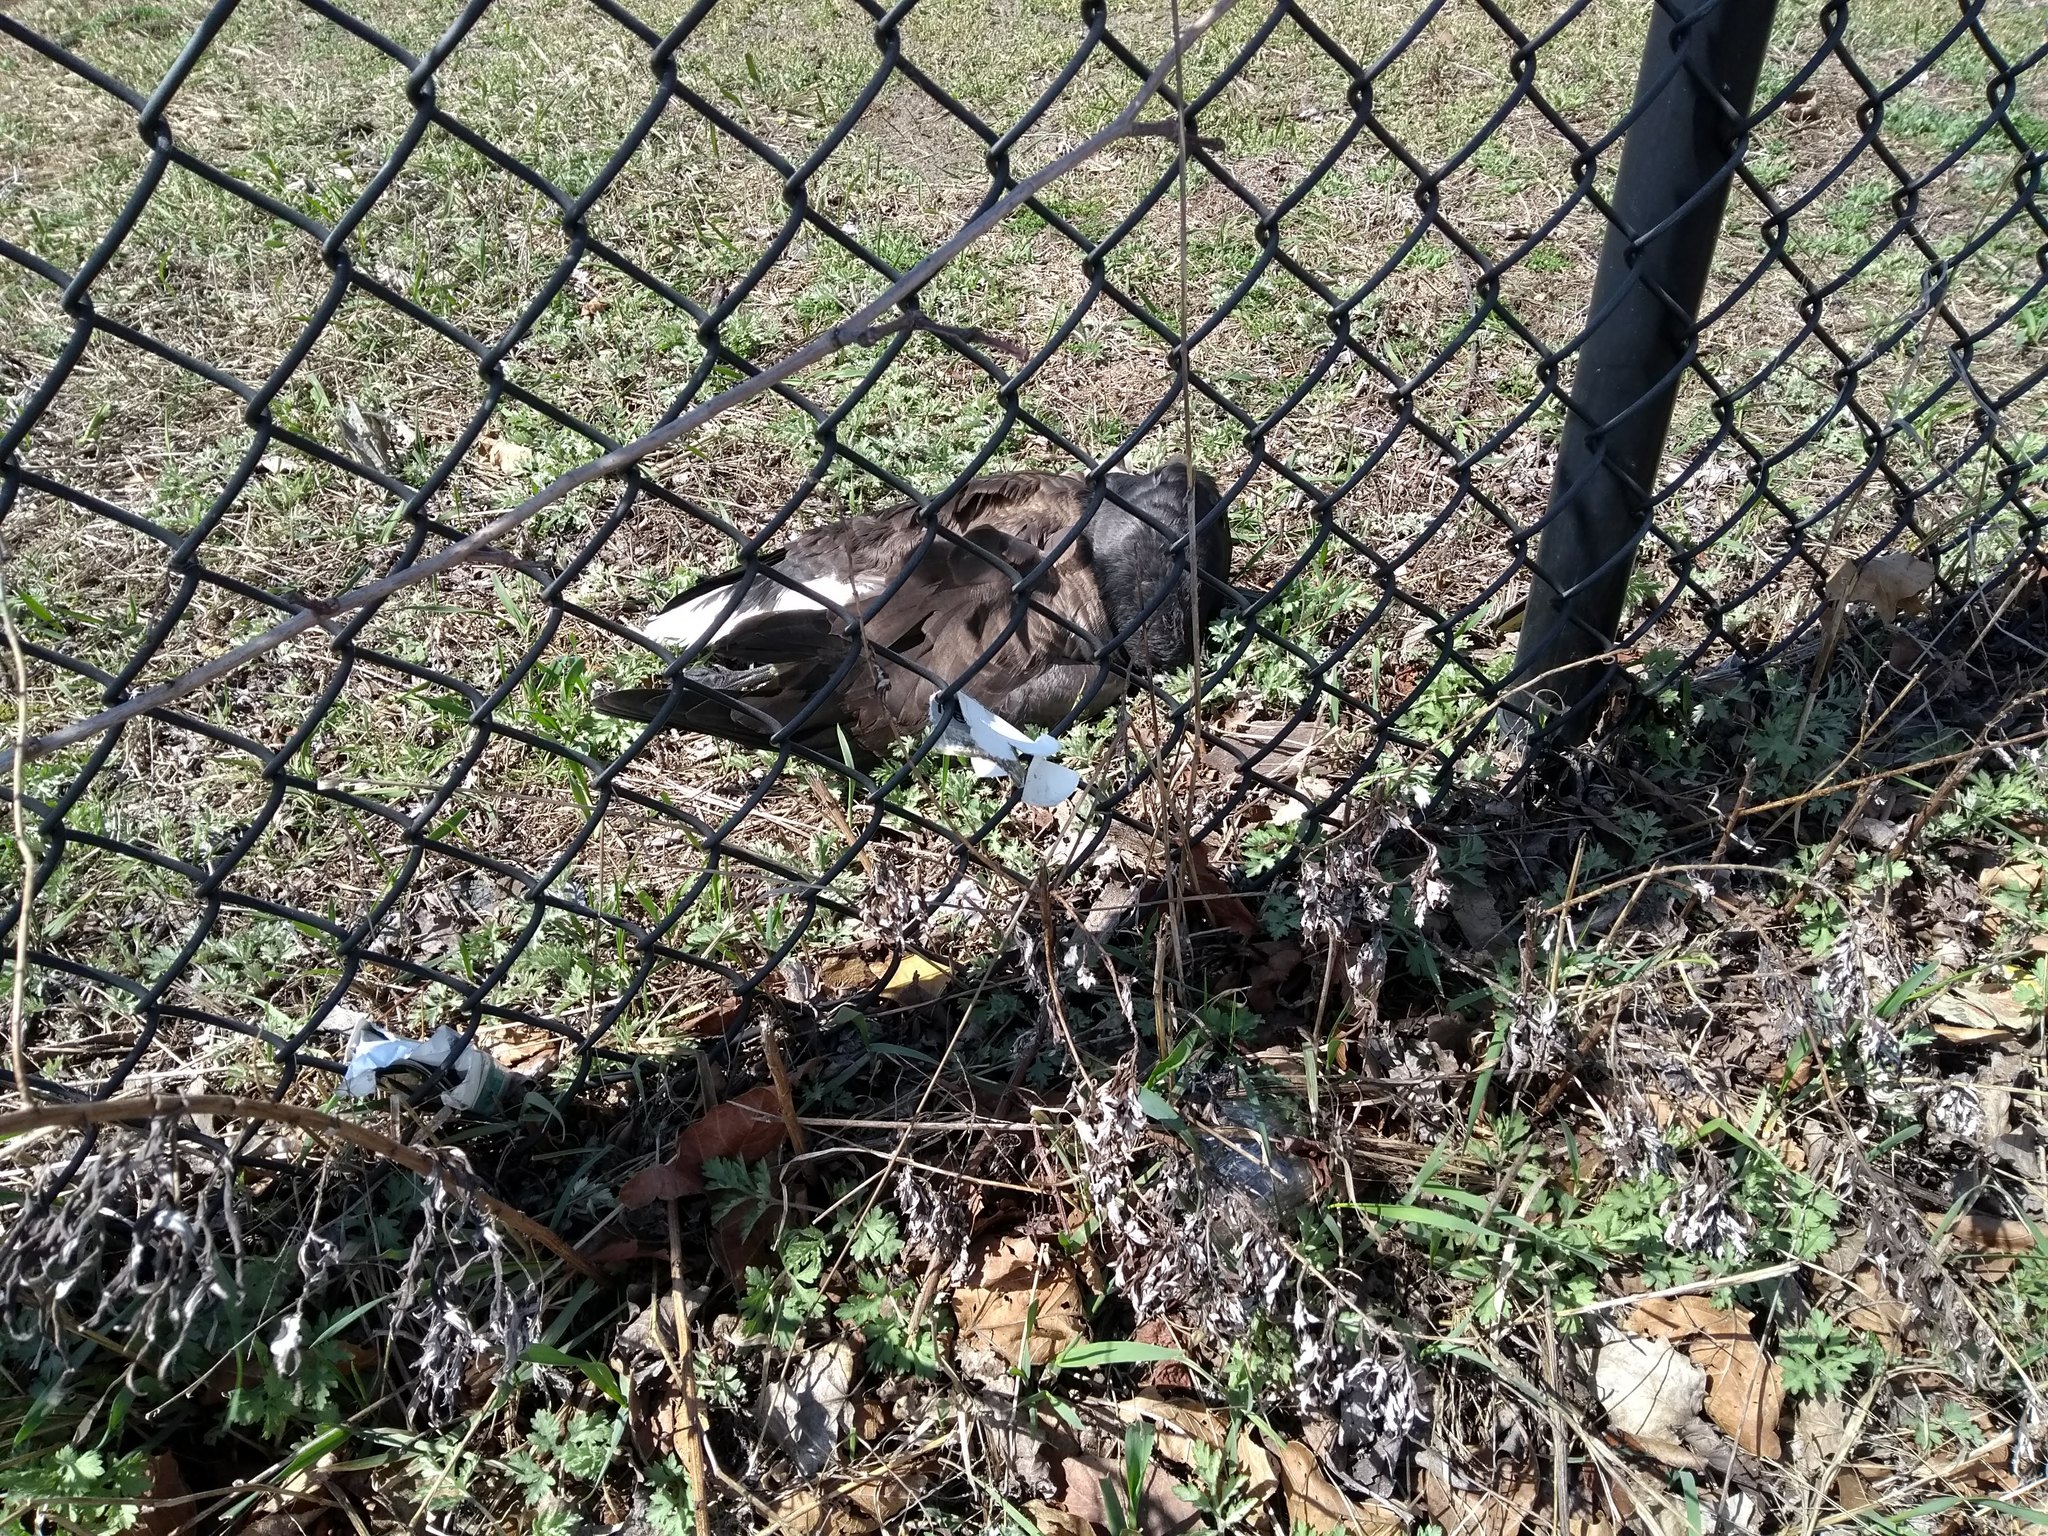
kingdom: Animalia
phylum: Chordata
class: Aves
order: Anseriformes
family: Anatidae
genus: Branta
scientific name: Branta bernicla
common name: Brant goose
